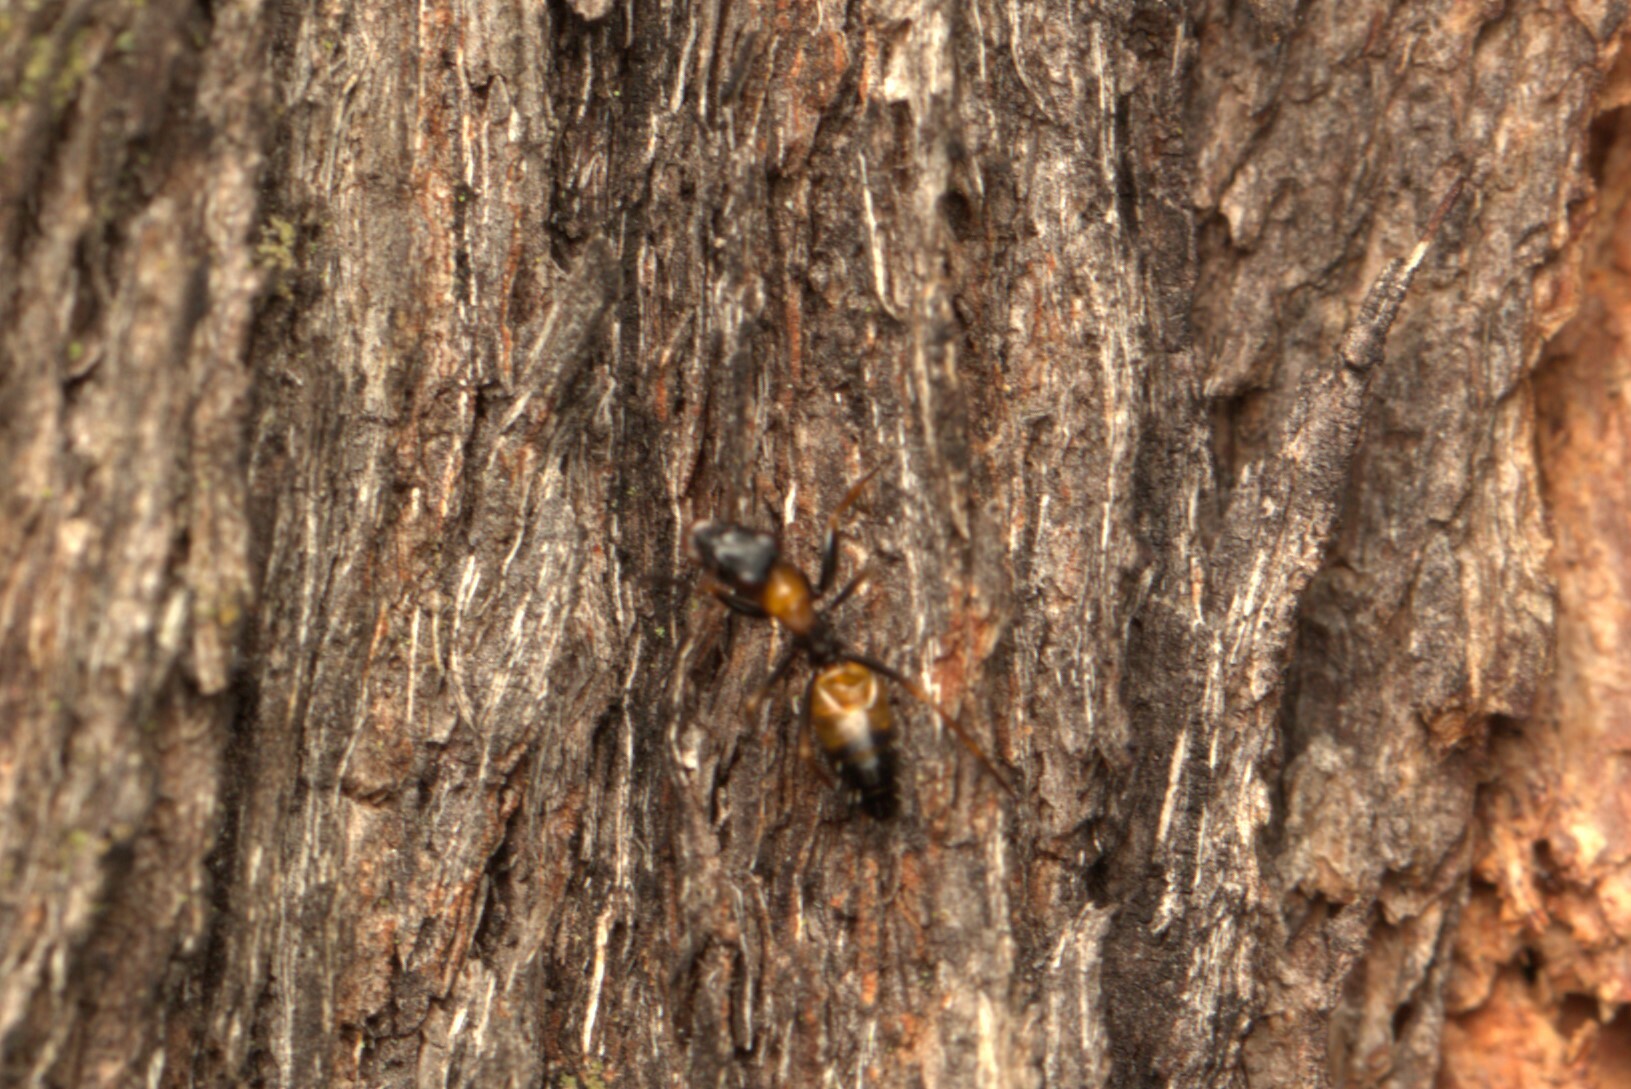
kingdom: Animalia
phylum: Arthropoda
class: Insecta
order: Hymenoptera
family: Formicidae
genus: Opisthopsis
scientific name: Opisthopsis pictus
